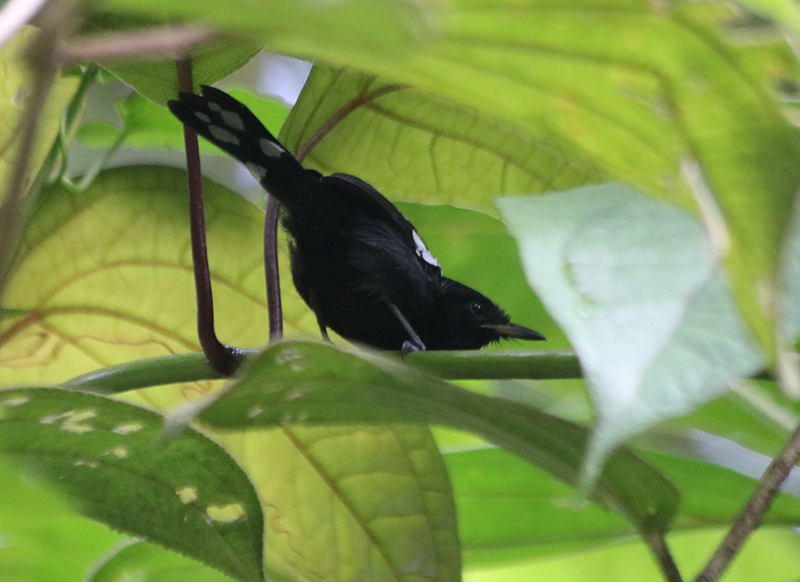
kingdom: Animalia
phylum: Chordata
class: Aves
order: Passeriformes
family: Thamnophilidae
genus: Microrhopias
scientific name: Microrhopias quixensis
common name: Dot-winged antwren
